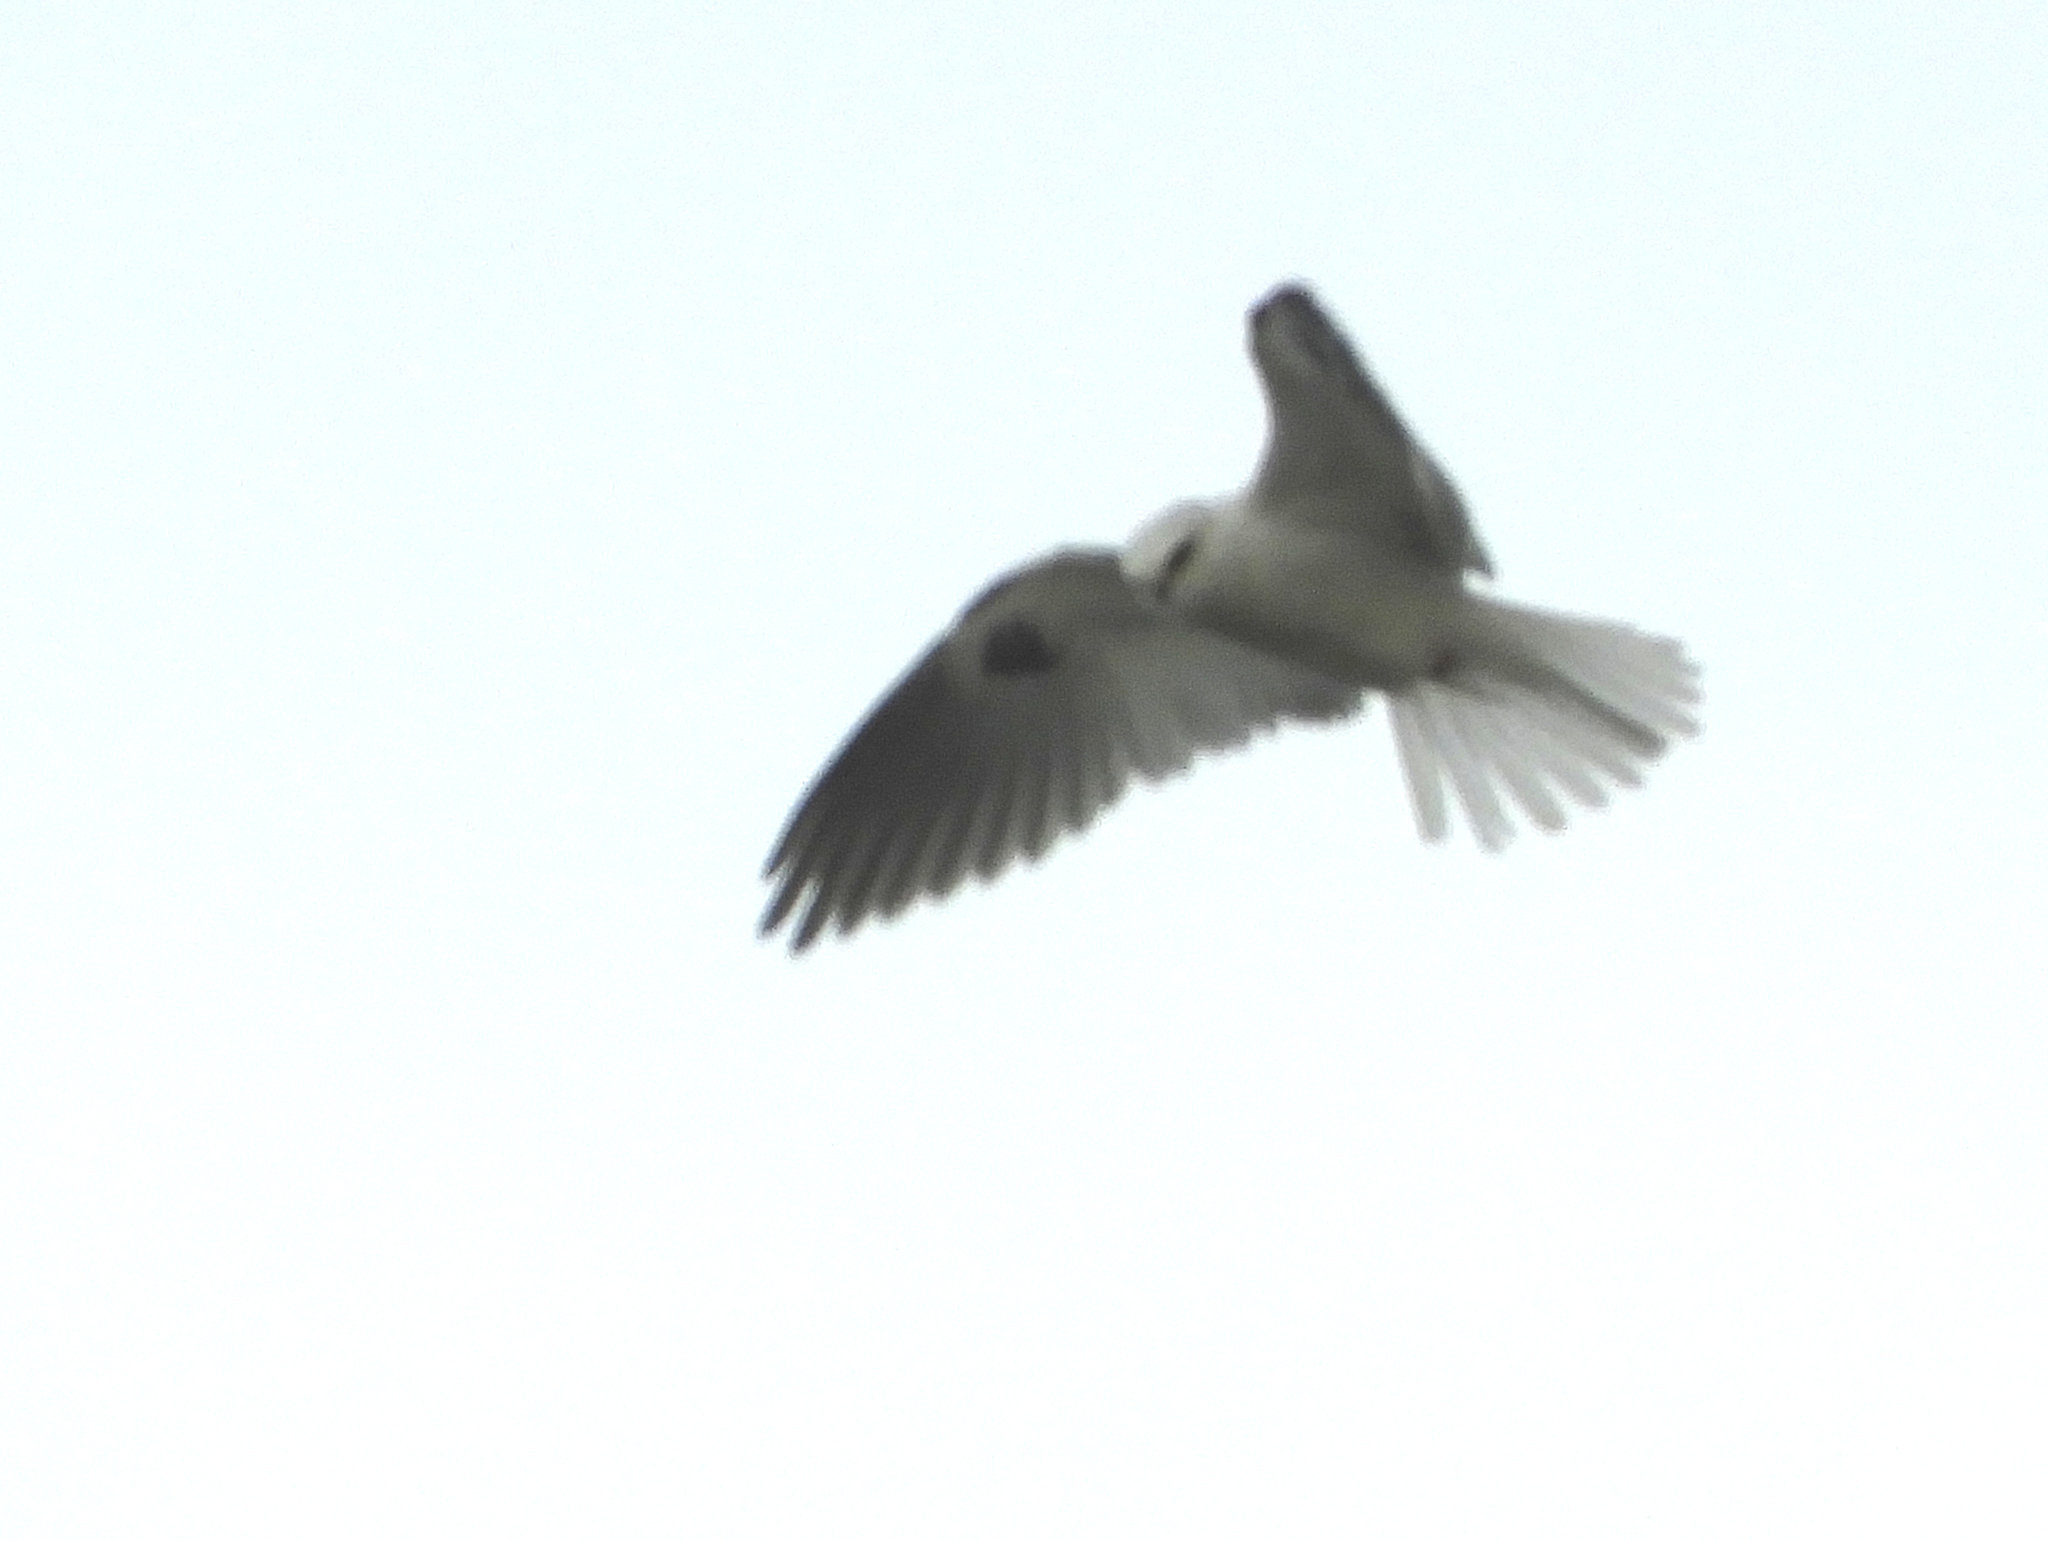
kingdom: Animalia
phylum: Chordata
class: Aves
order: Accipitriformes
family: Accipitridae
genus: Elanus
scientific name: Elanus leucurus
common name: White-tailed kite
